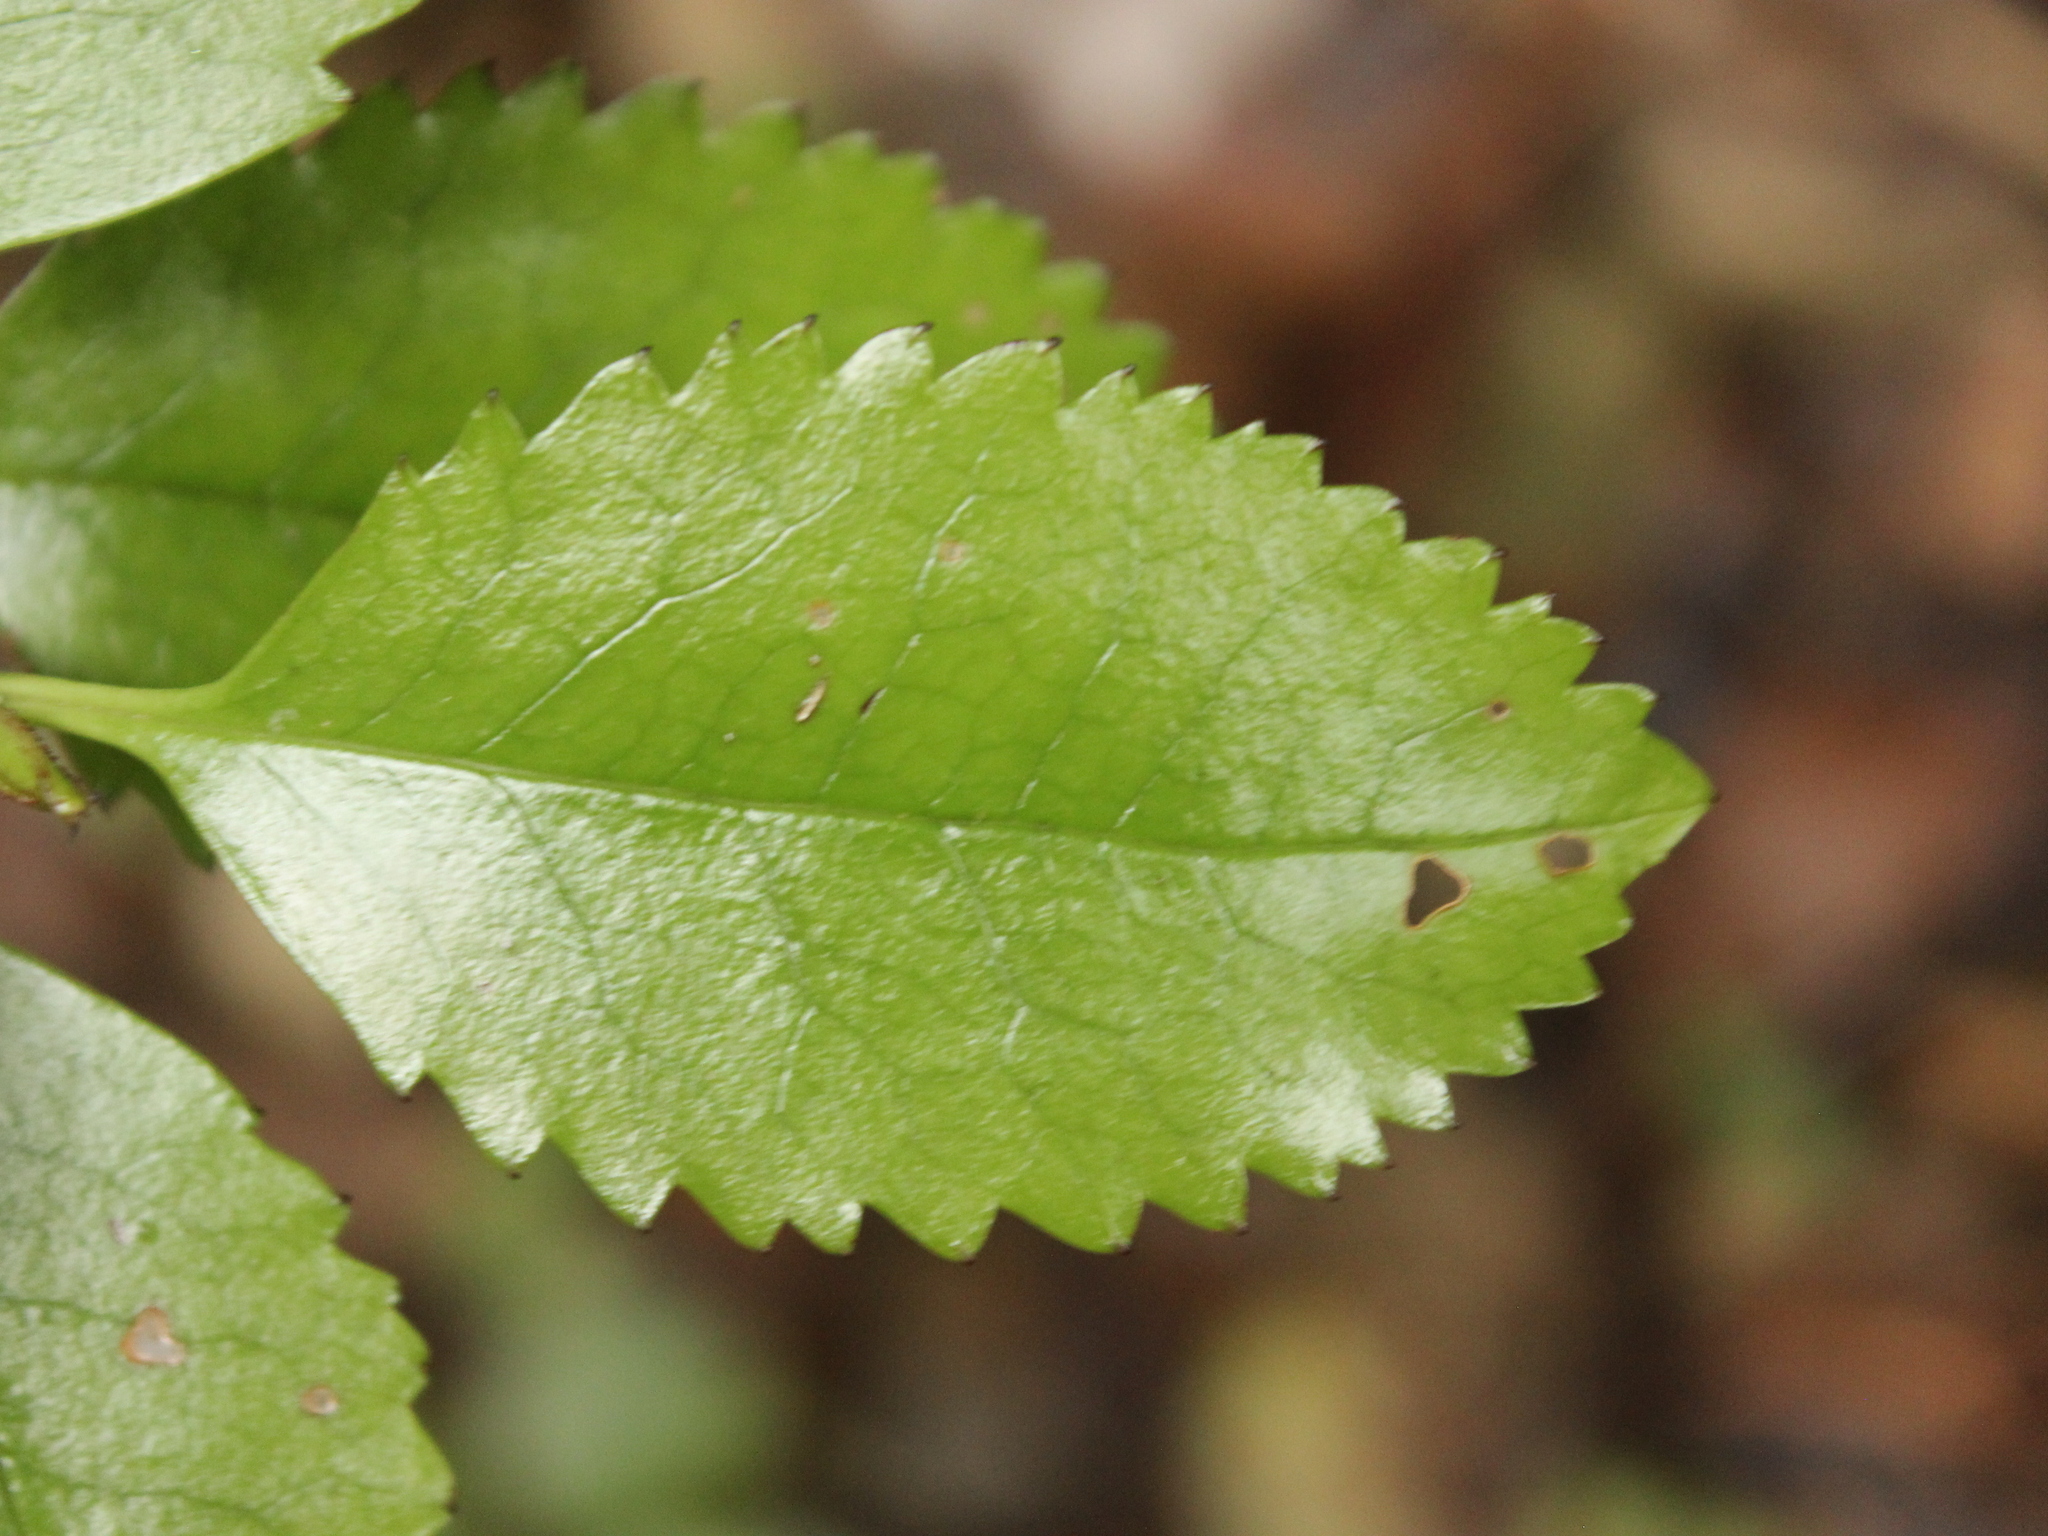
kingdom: Plantae
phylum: Tracheophyta
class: Magnoliopsida
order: Chloranthales
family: Chloranthaceae
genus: Ascarina
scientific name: Ascarina lucida
